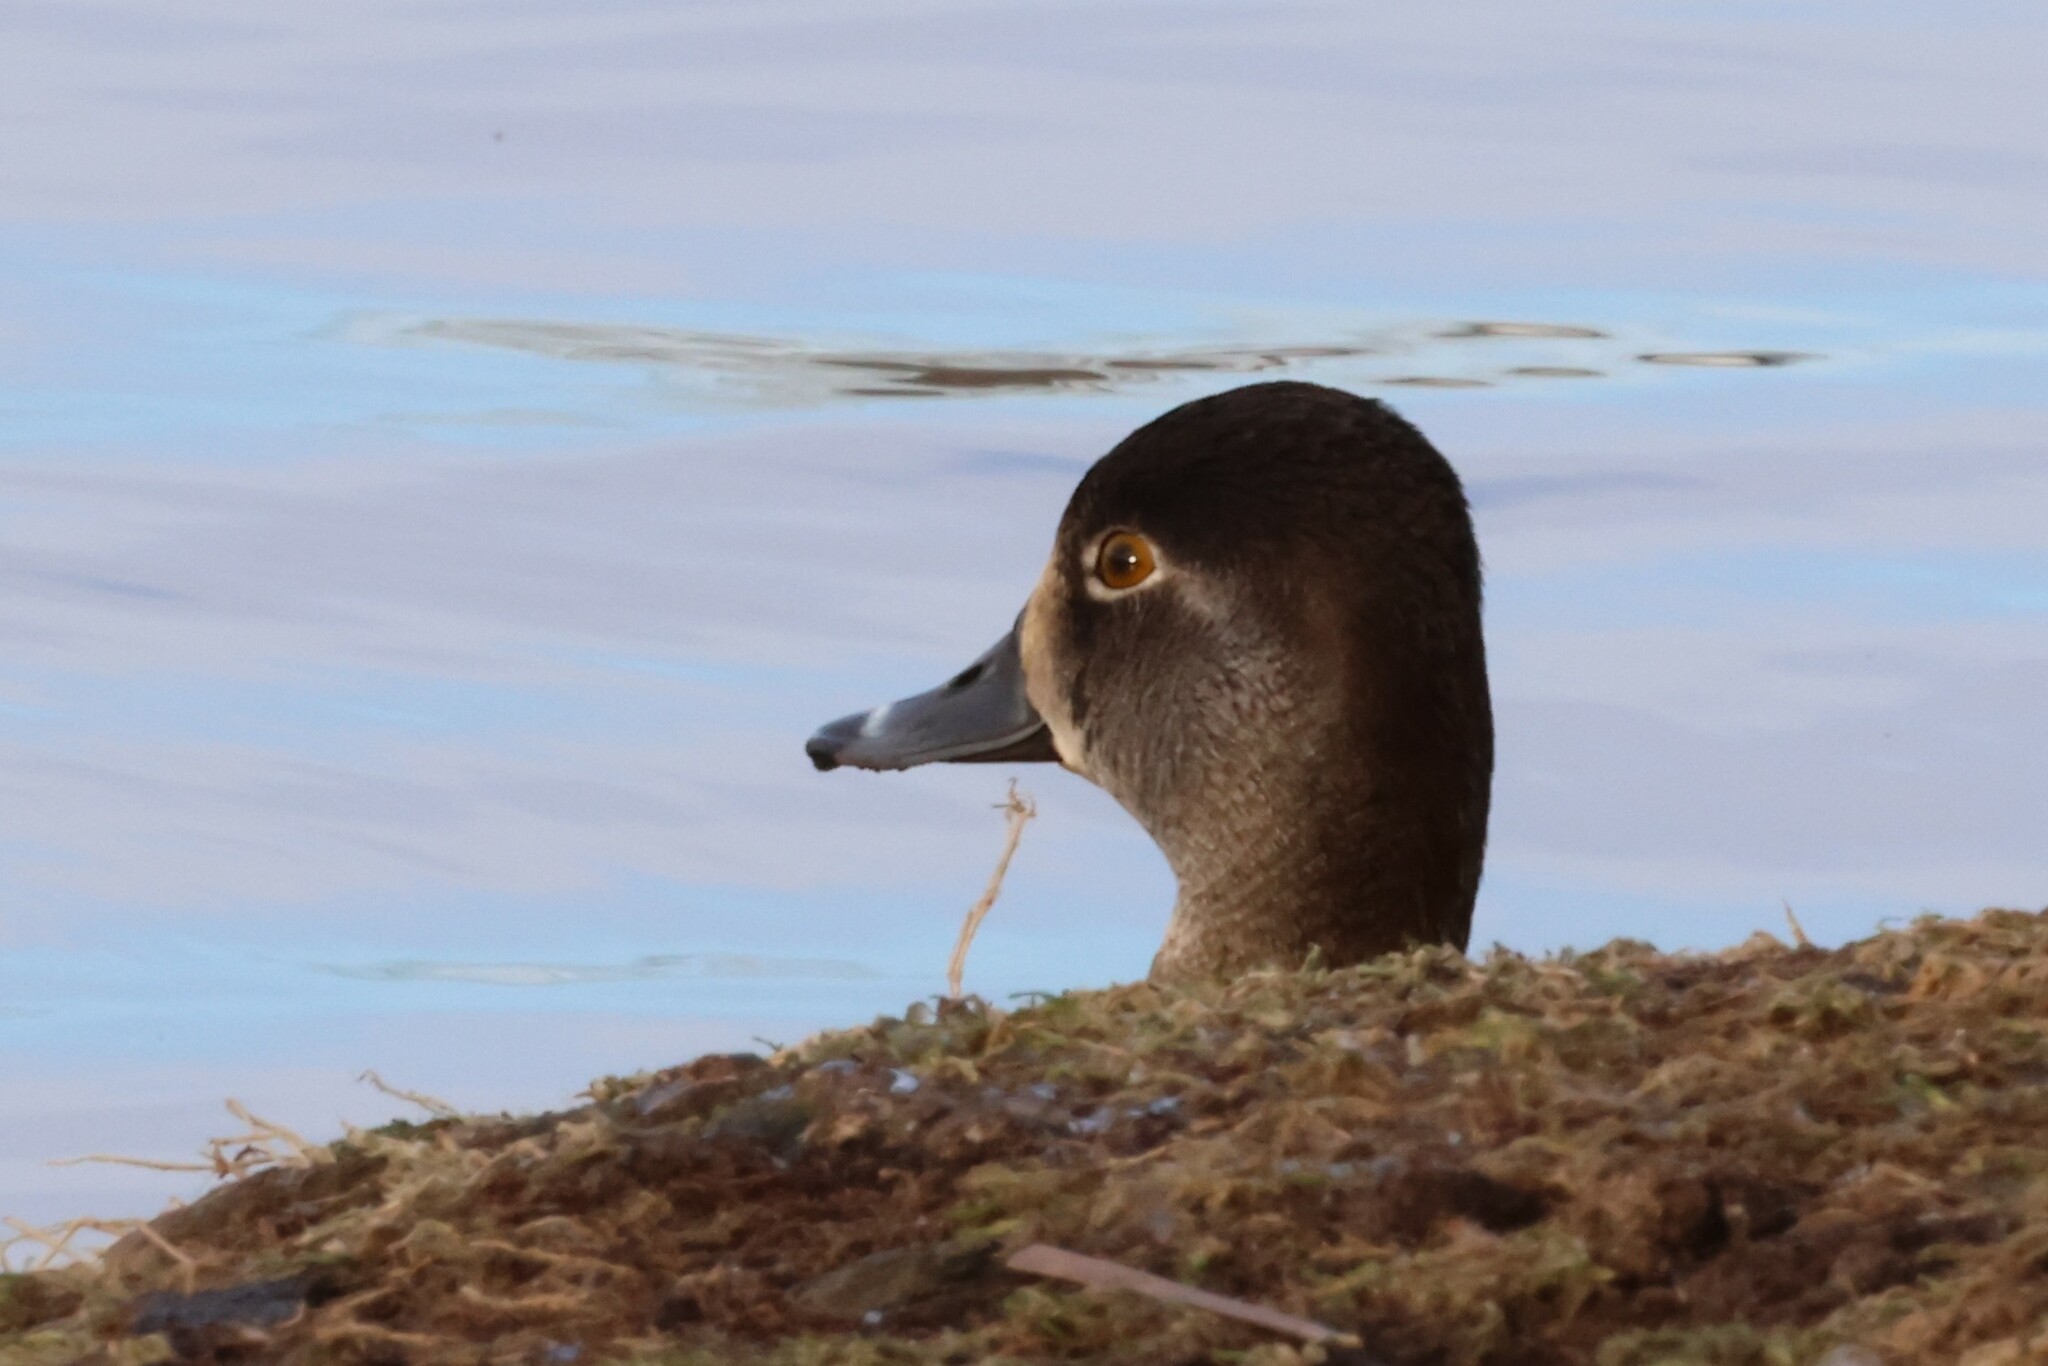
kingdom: Animalia
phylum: Chordata
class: Aves
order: Anseriformes
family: Anatidae
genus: Aythya
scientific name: Aythya collaris
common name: Ring-necked duck
